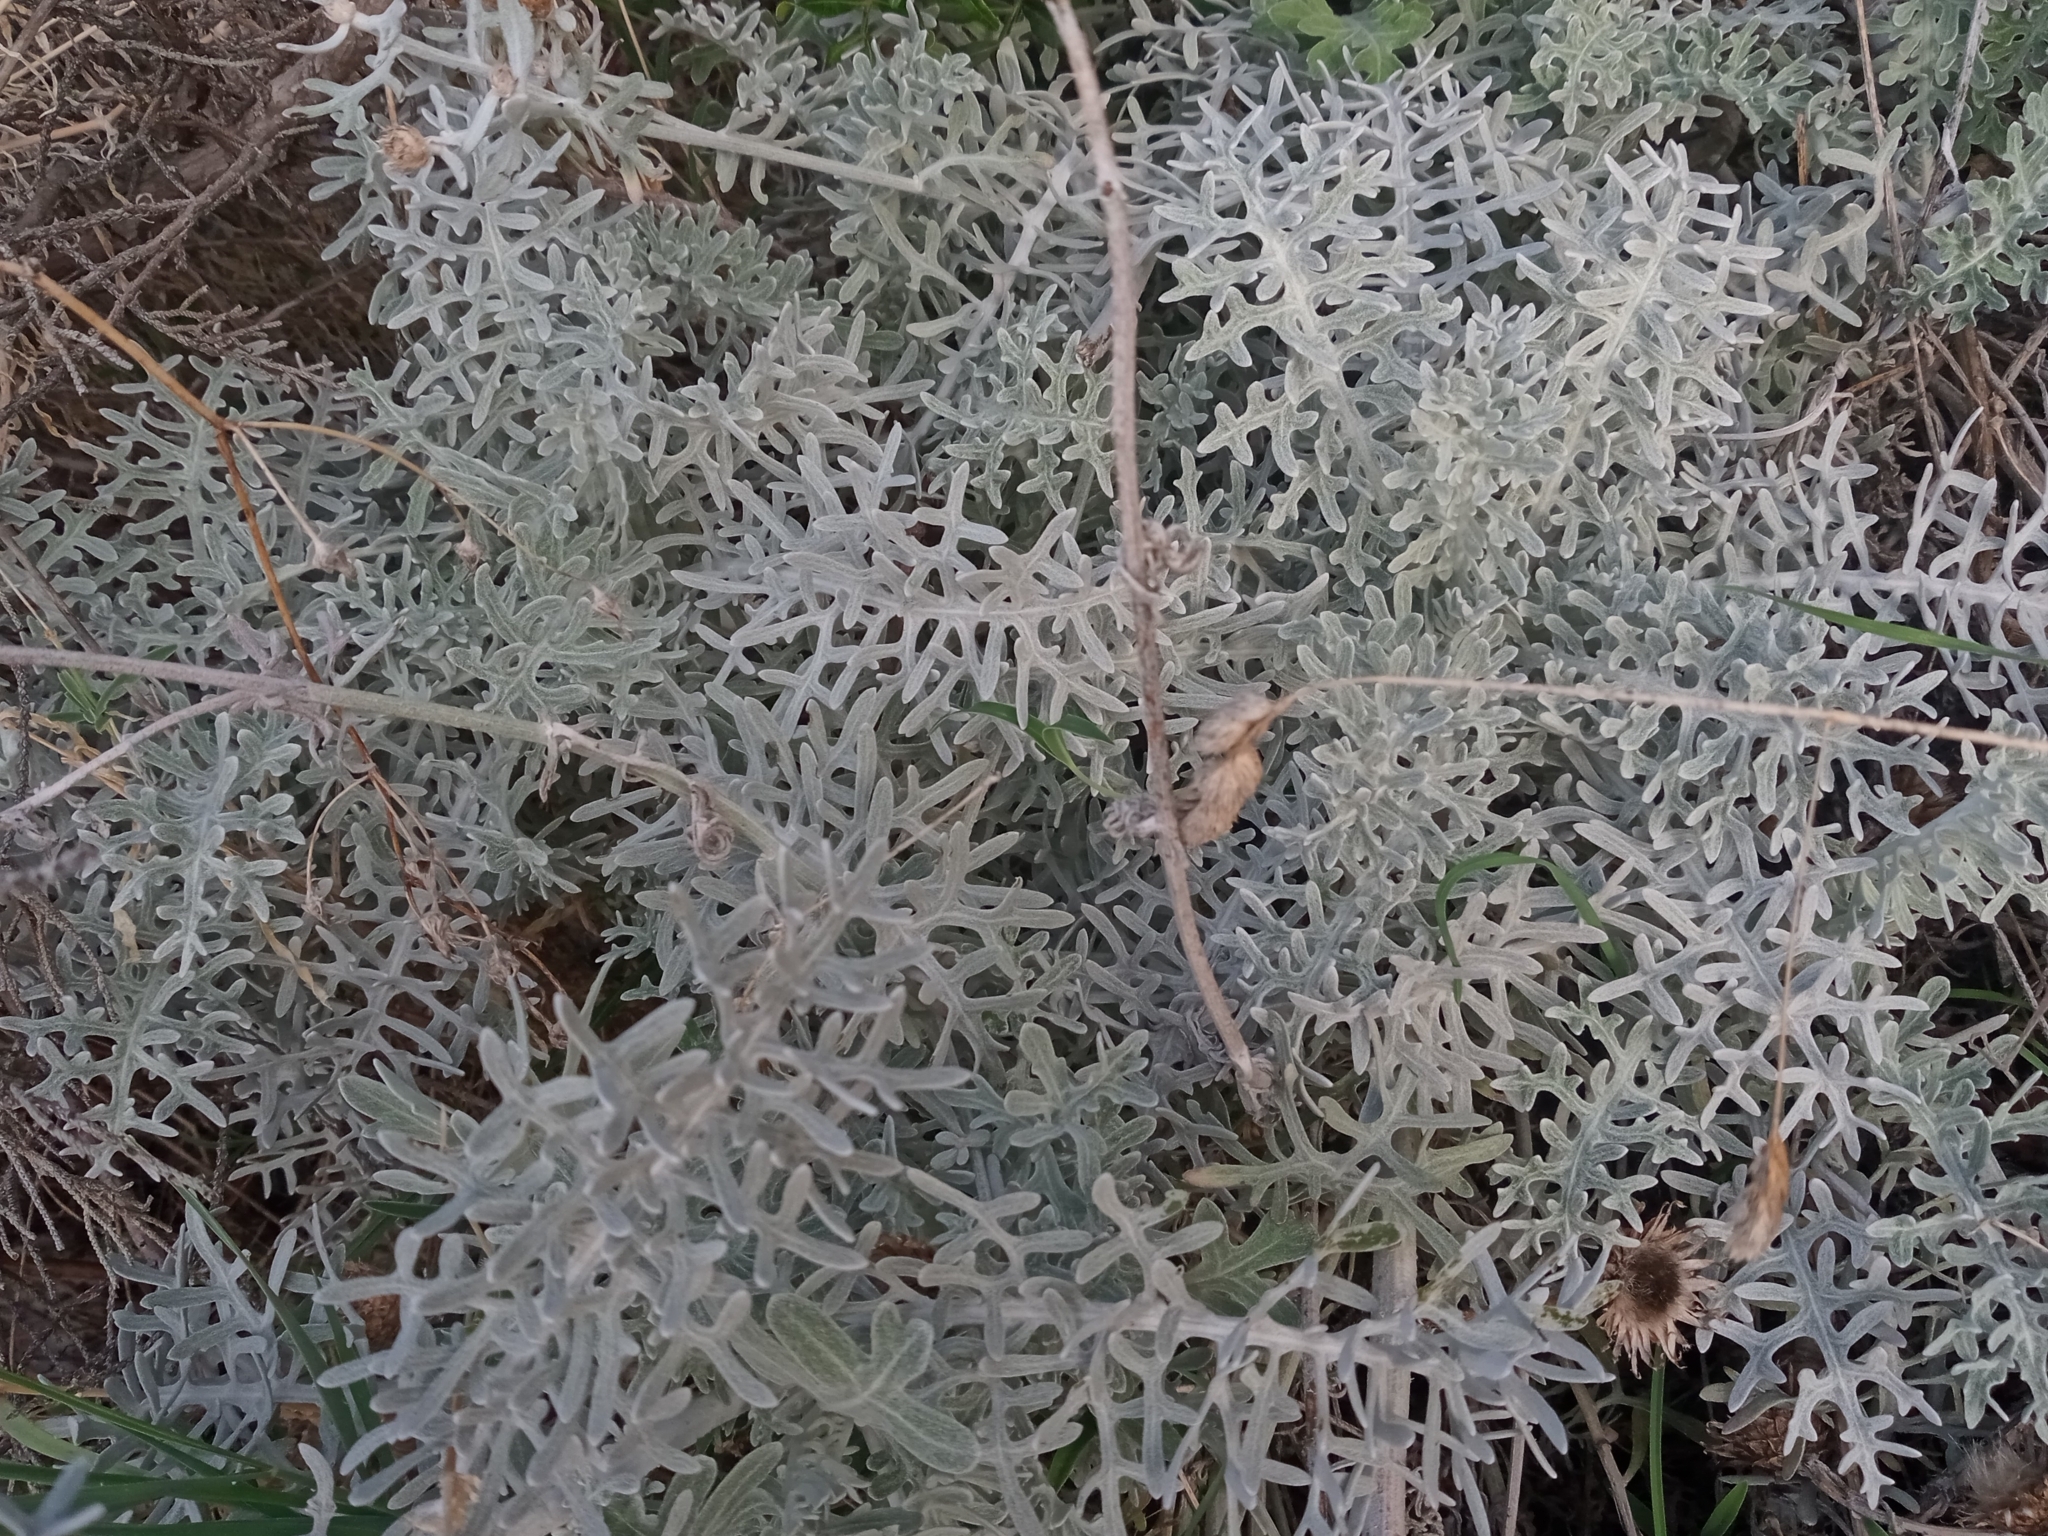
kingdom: Plantae
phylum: Tracheophyta
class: Magnoliopsida
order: Asterales
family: Asteraceae
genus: Centaurea
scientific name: Centaurea cineraria
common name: Dusty miller
